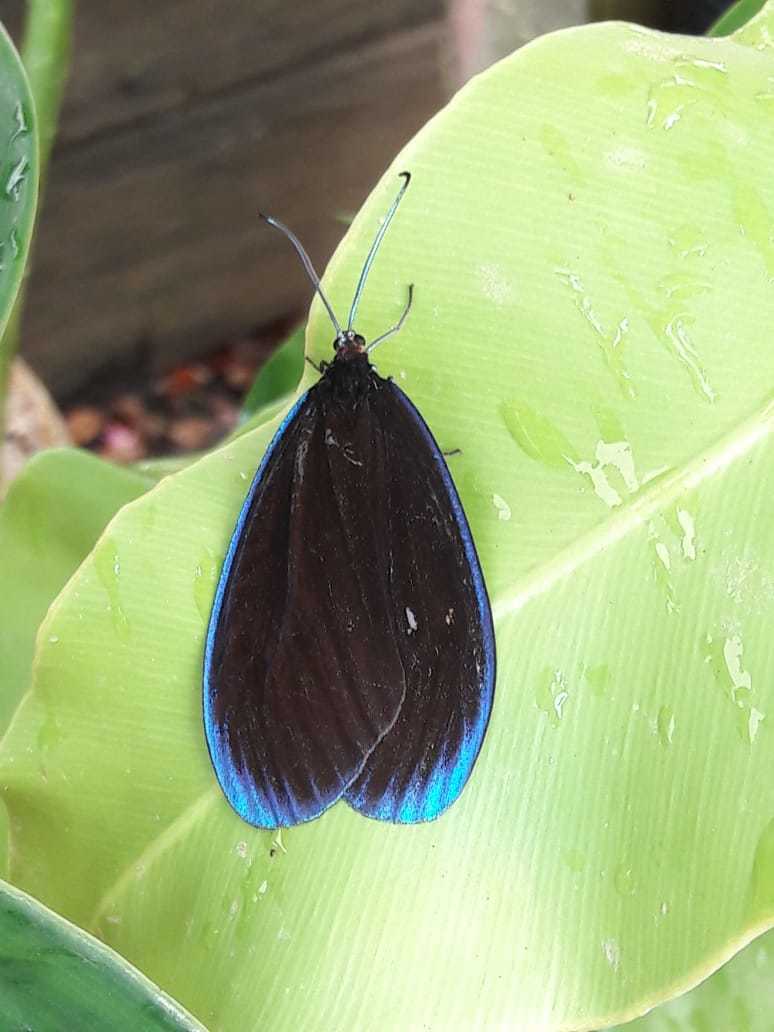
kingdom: Animalia
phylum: Arthropoda
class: Insecta
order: Lepidoptera
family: Zygaenidae
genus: Pompelon
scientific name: Pompelon marginata
